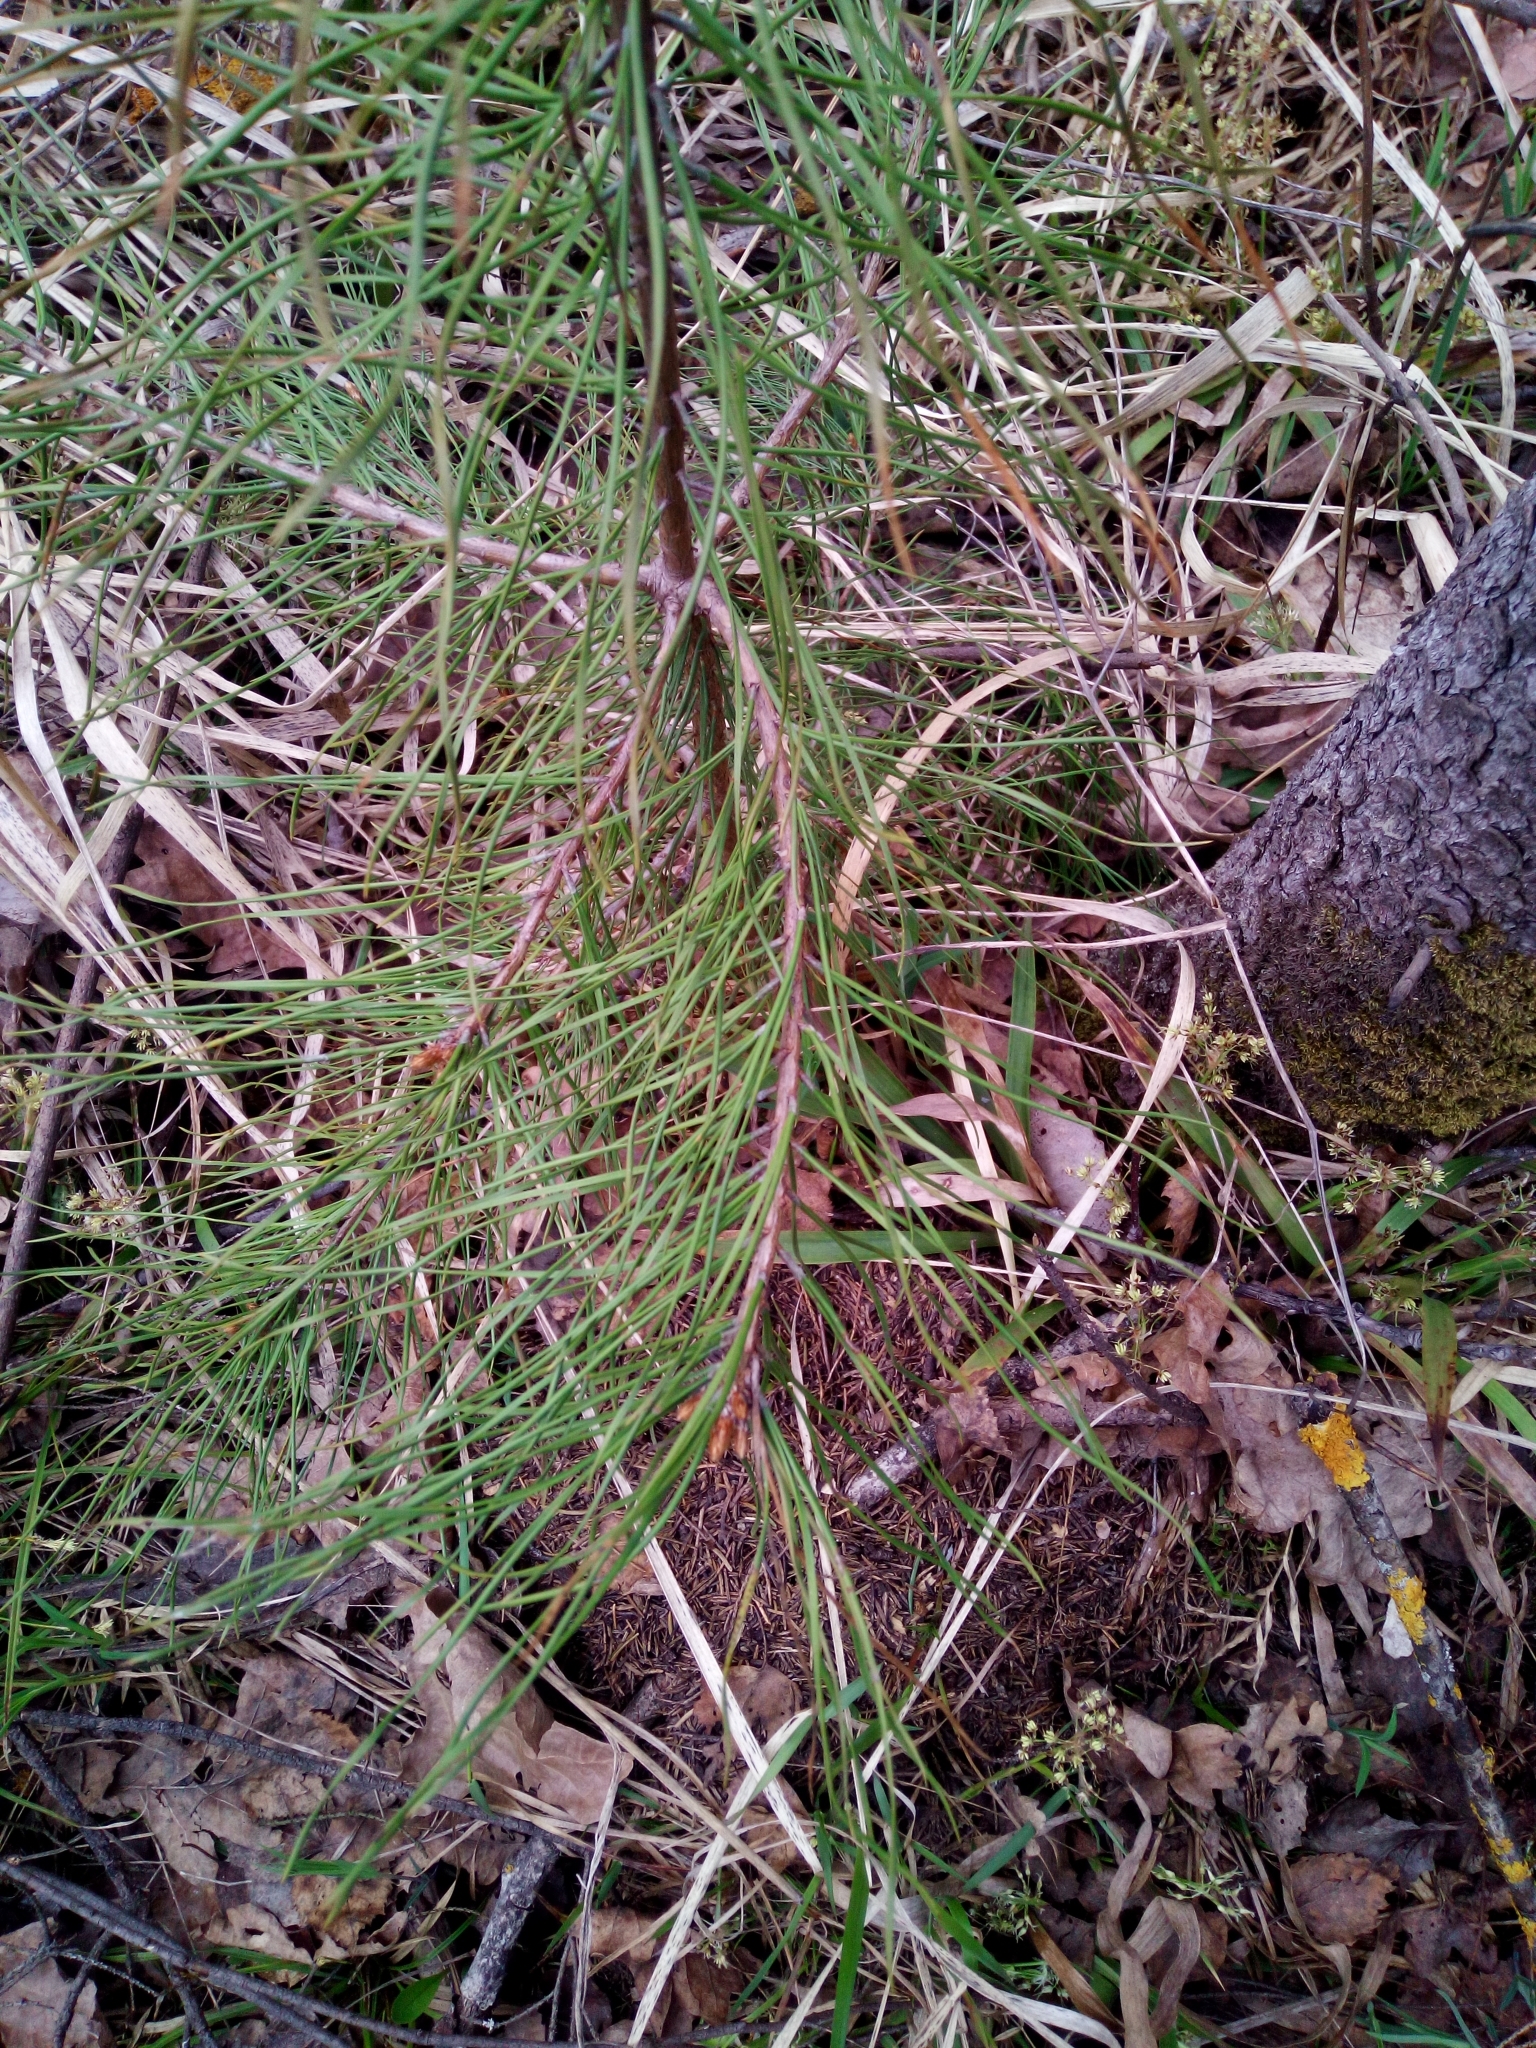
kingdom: Plantae
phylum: Tracheophyta
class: Pinopsida
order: Pinales
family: Pinaceae
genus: Pinus
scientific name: Pinus sylvestris
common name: Scots pine
